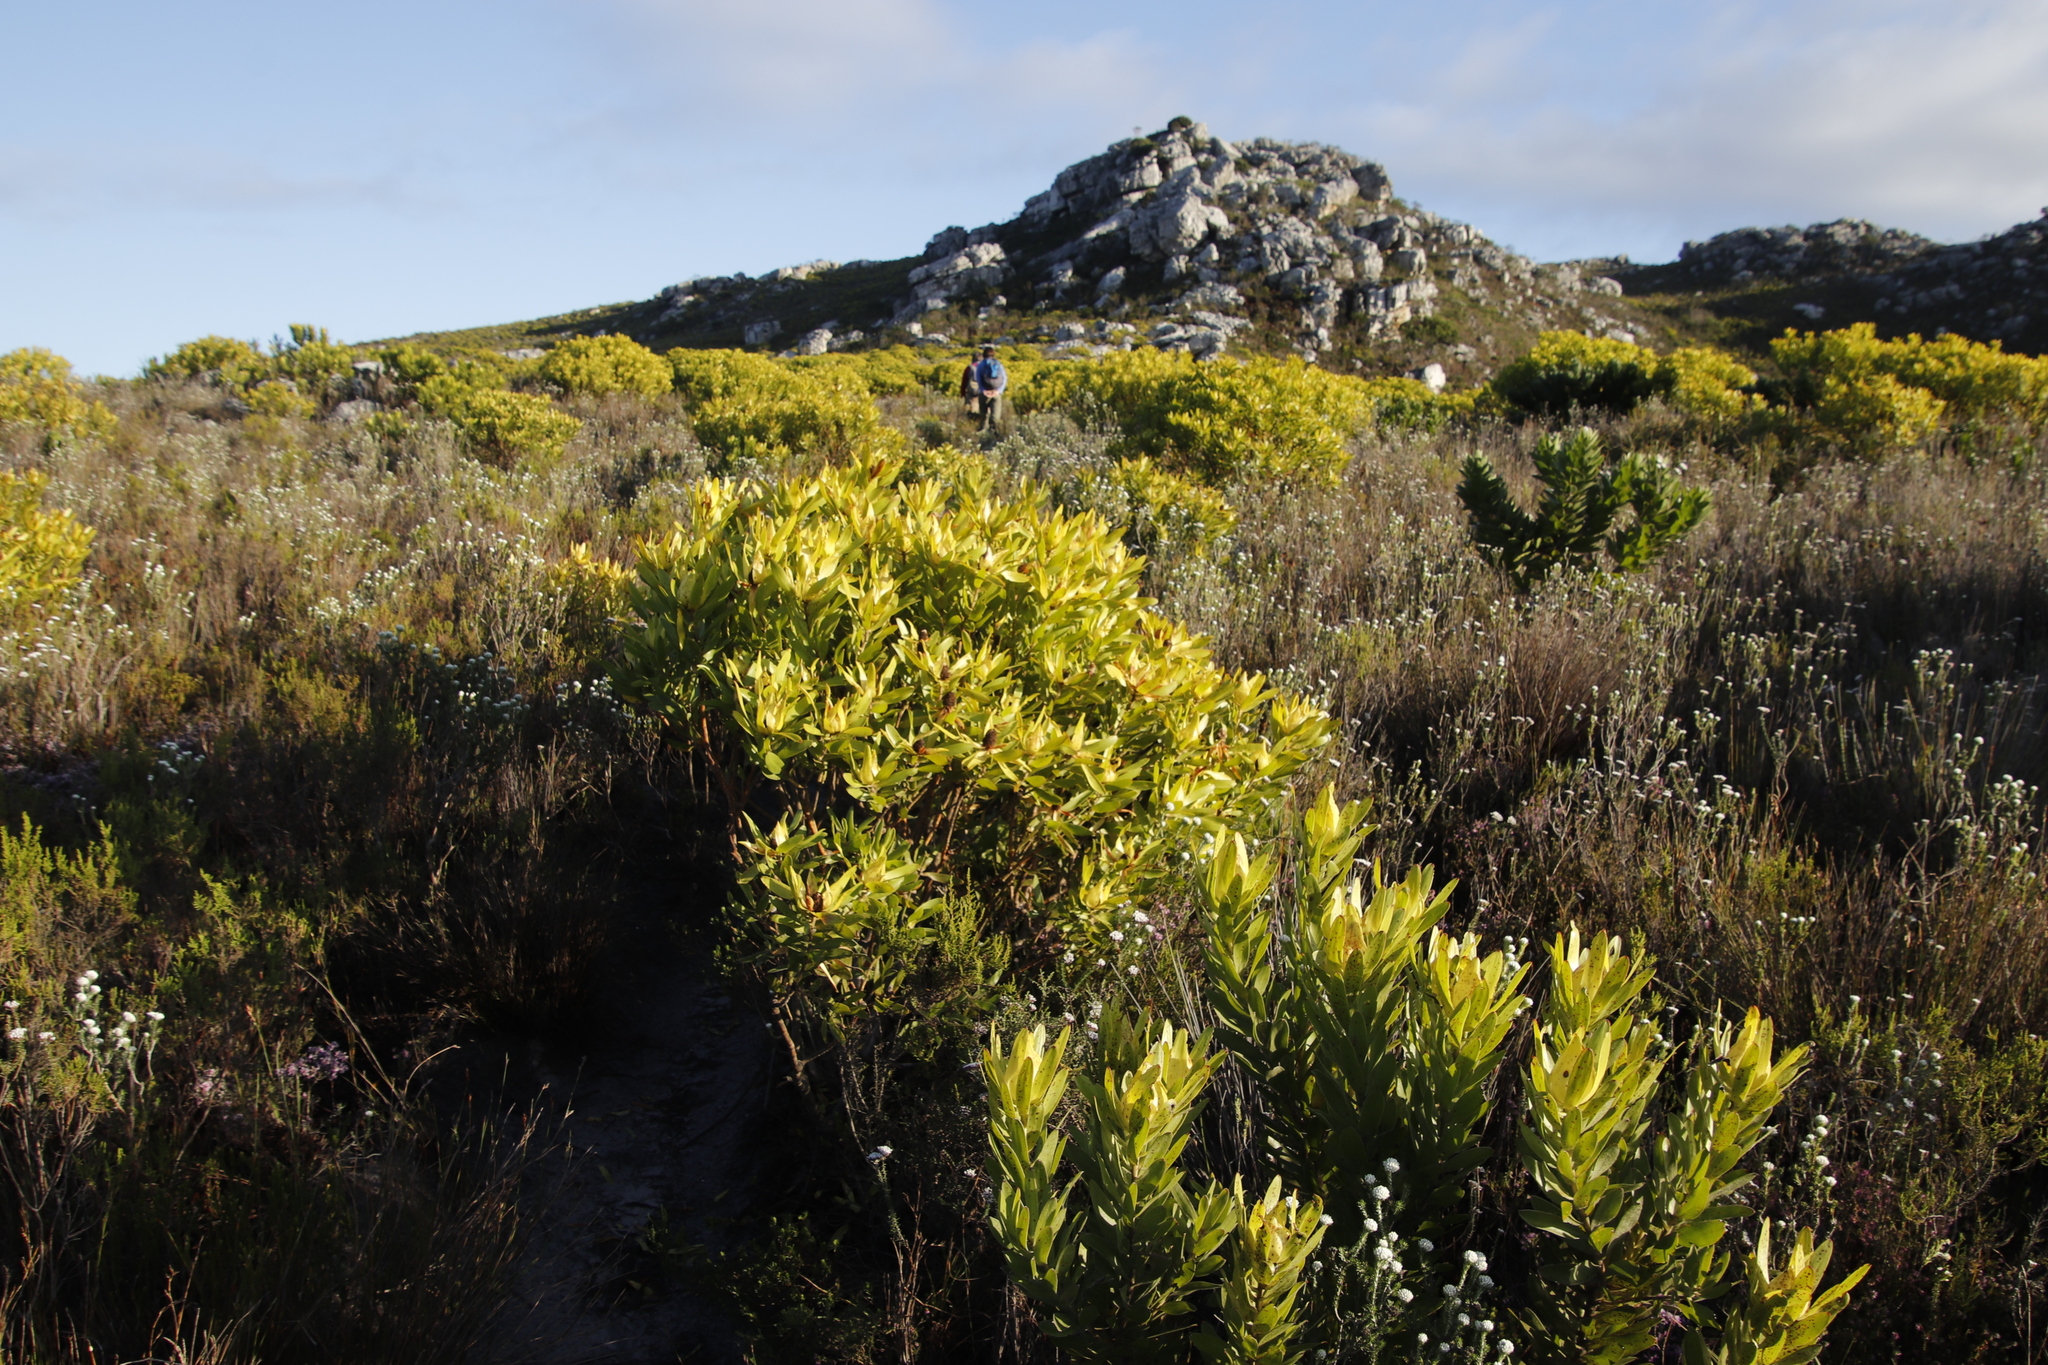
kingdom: Plantae
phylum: Tracheophyta
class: Magnoliopsida
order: Proteales
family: Proteaceae
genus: Leucadendron
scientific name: Leucadendron laureolum
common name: Golden sunshinebush
